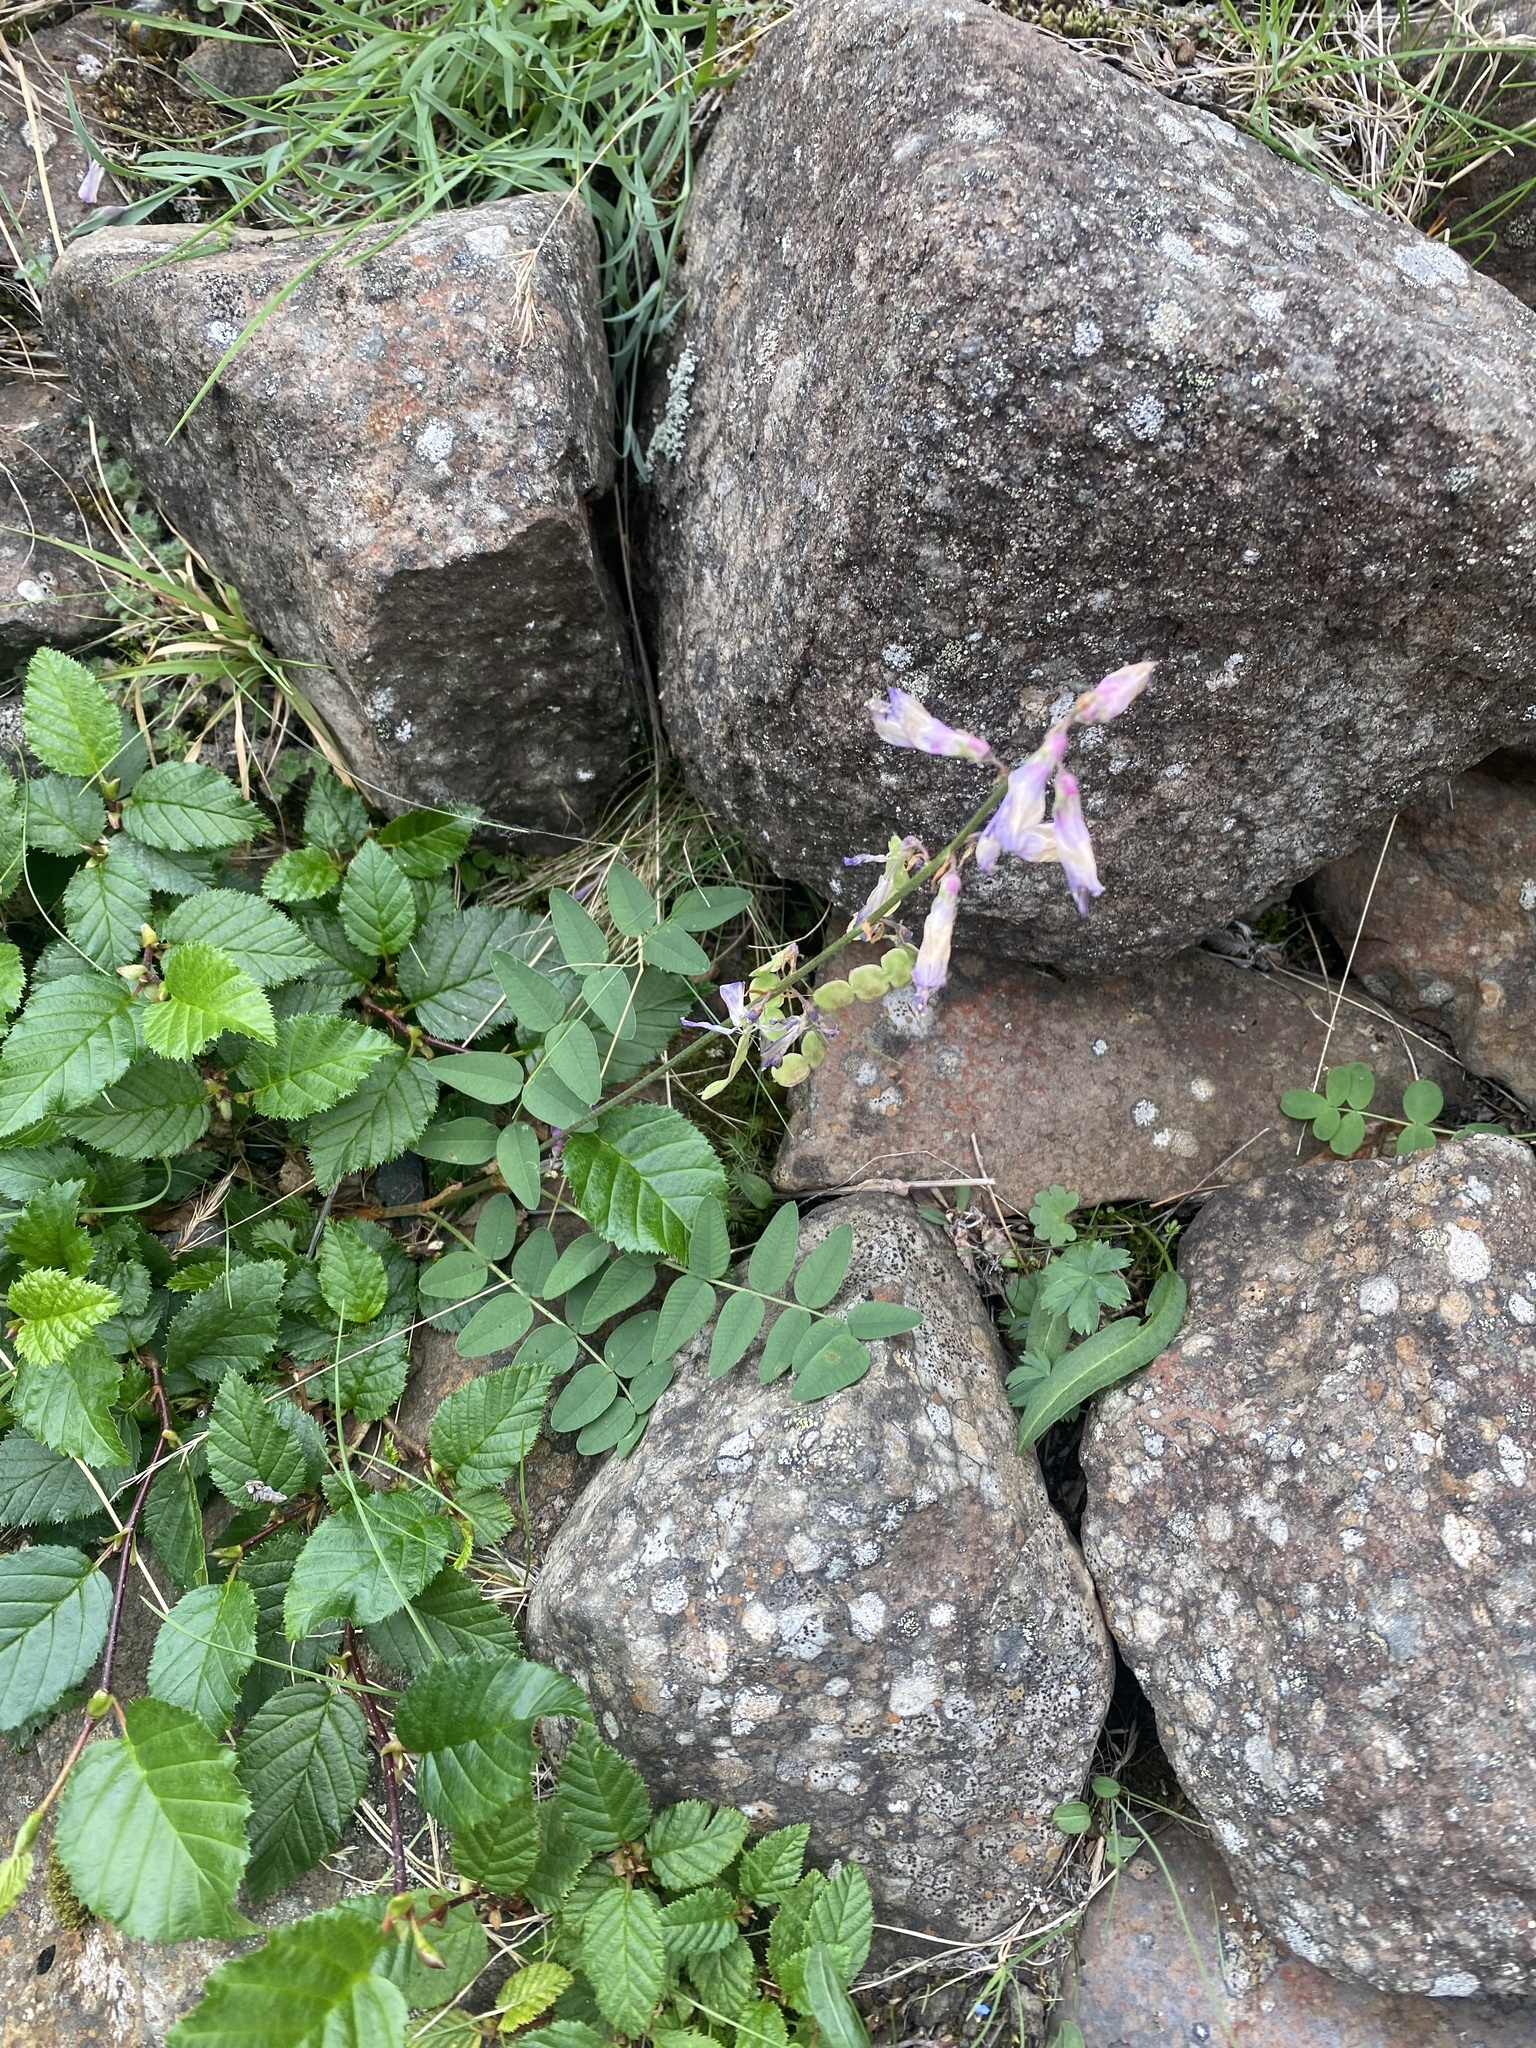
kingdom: Plantae
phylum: Tracheophyta
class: Magnoliopsida
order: Fabales
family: Fabaceae
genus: Hedysarum
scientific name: Hedysarum hedysaroides
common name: Alpine french-honeysuckle
